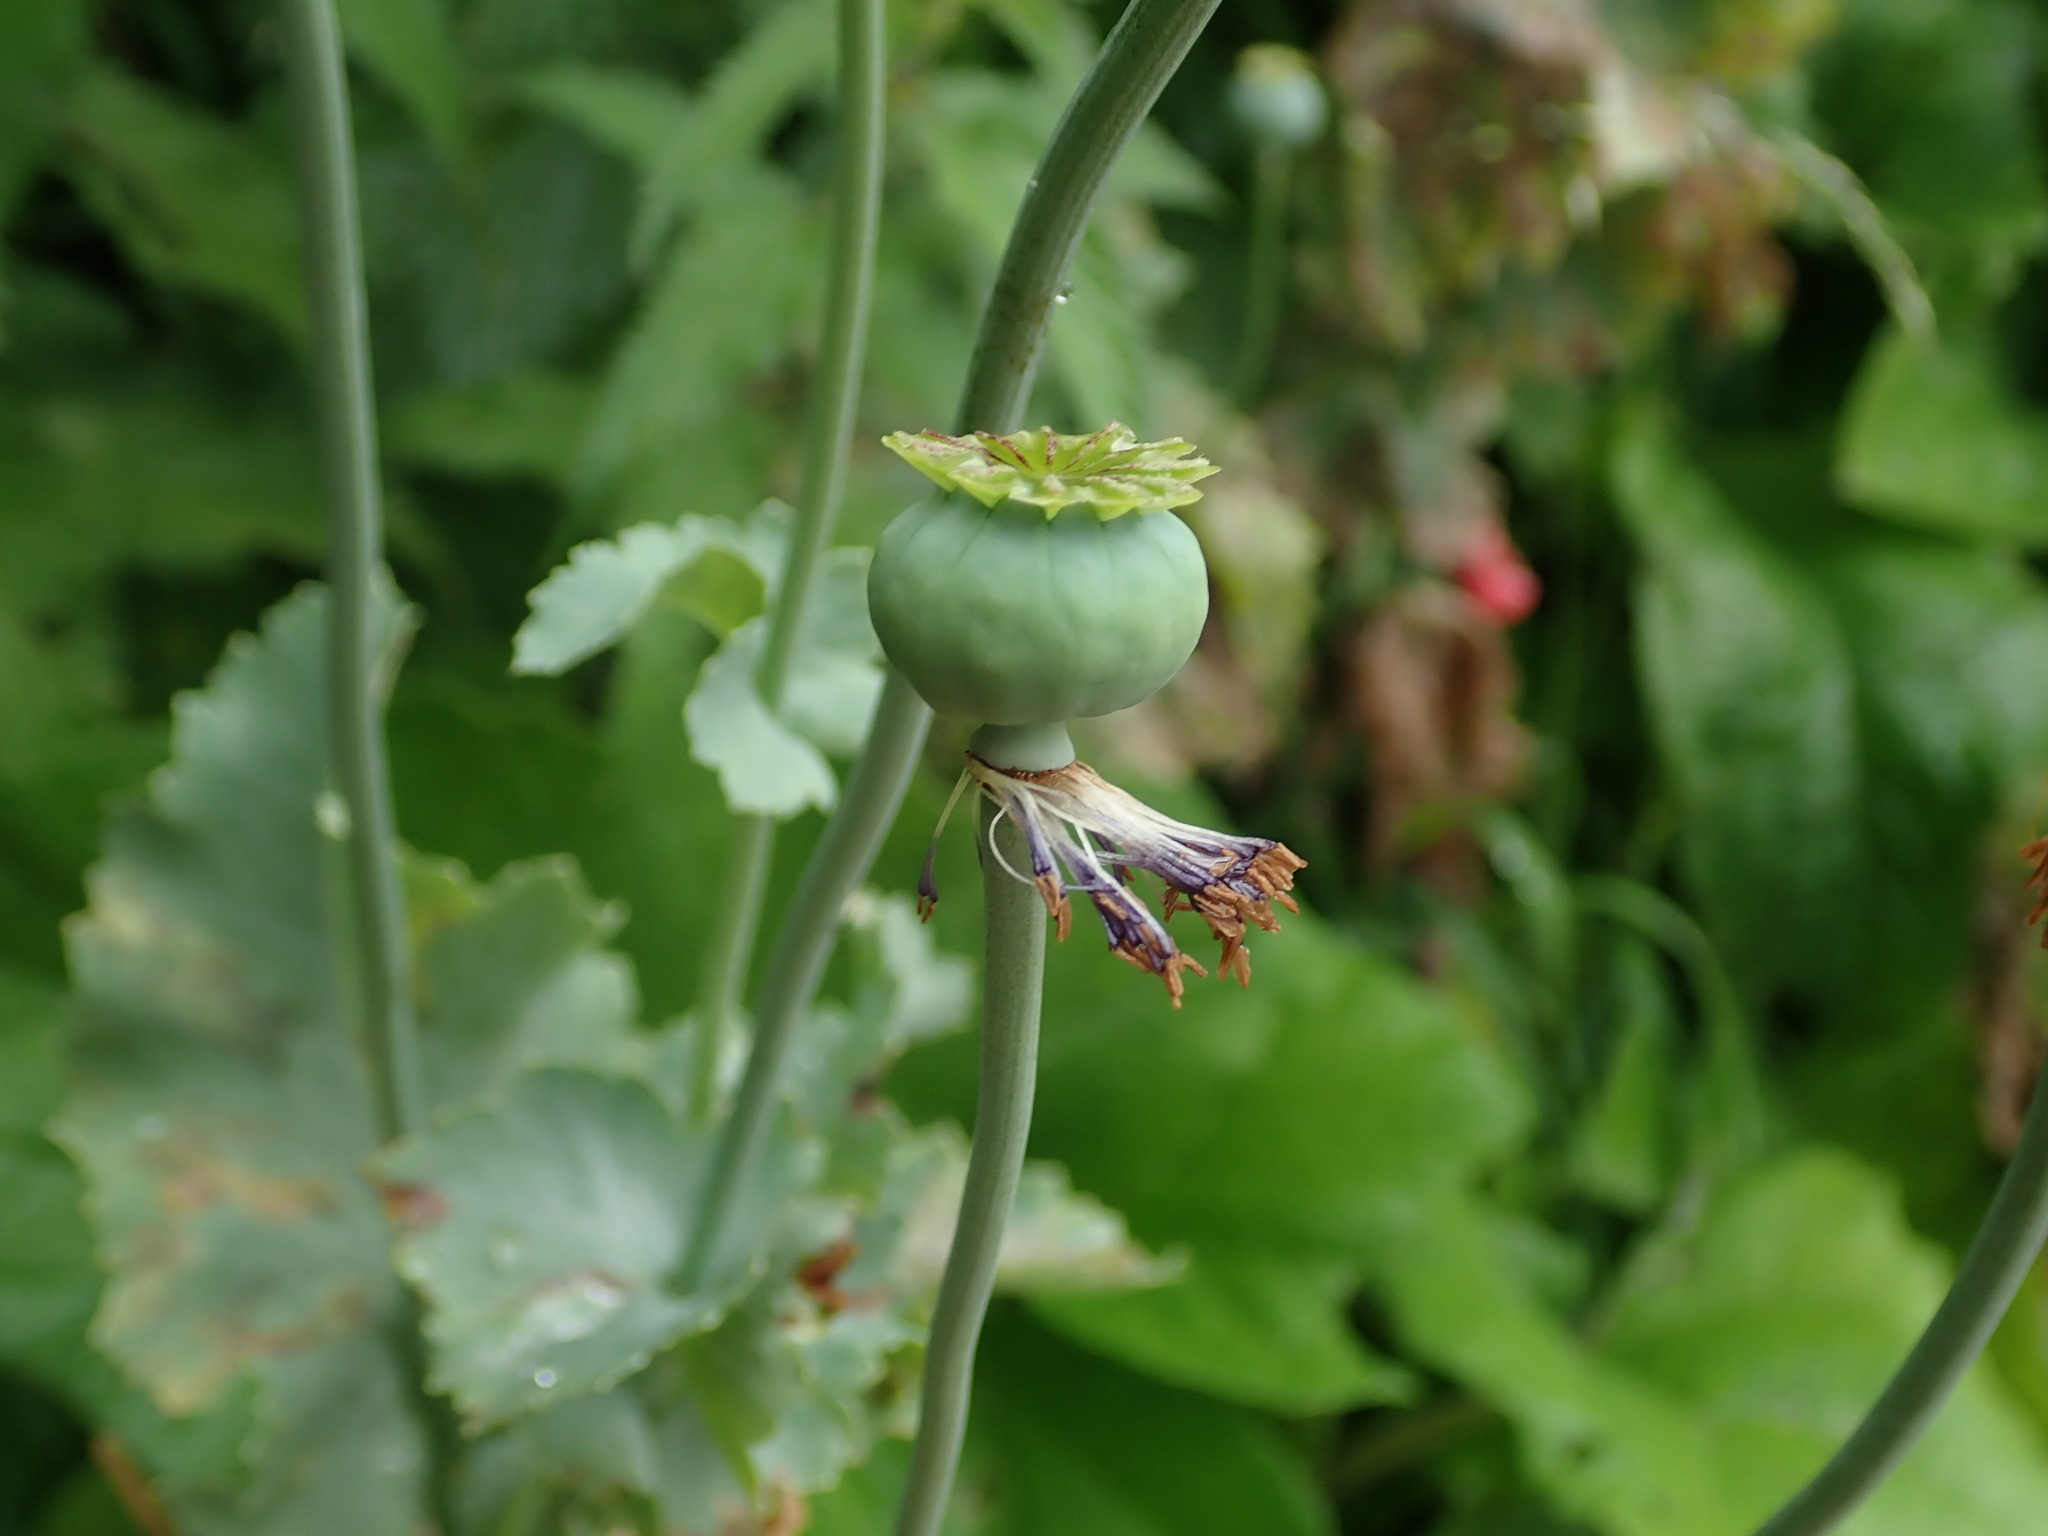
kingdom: Plantae
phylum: Tracheophyta
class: Magnoliopsida
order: Ranunculales
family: Papaveraceae
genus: Papaver
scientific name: Papaver somniferum
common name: Opium poppy
